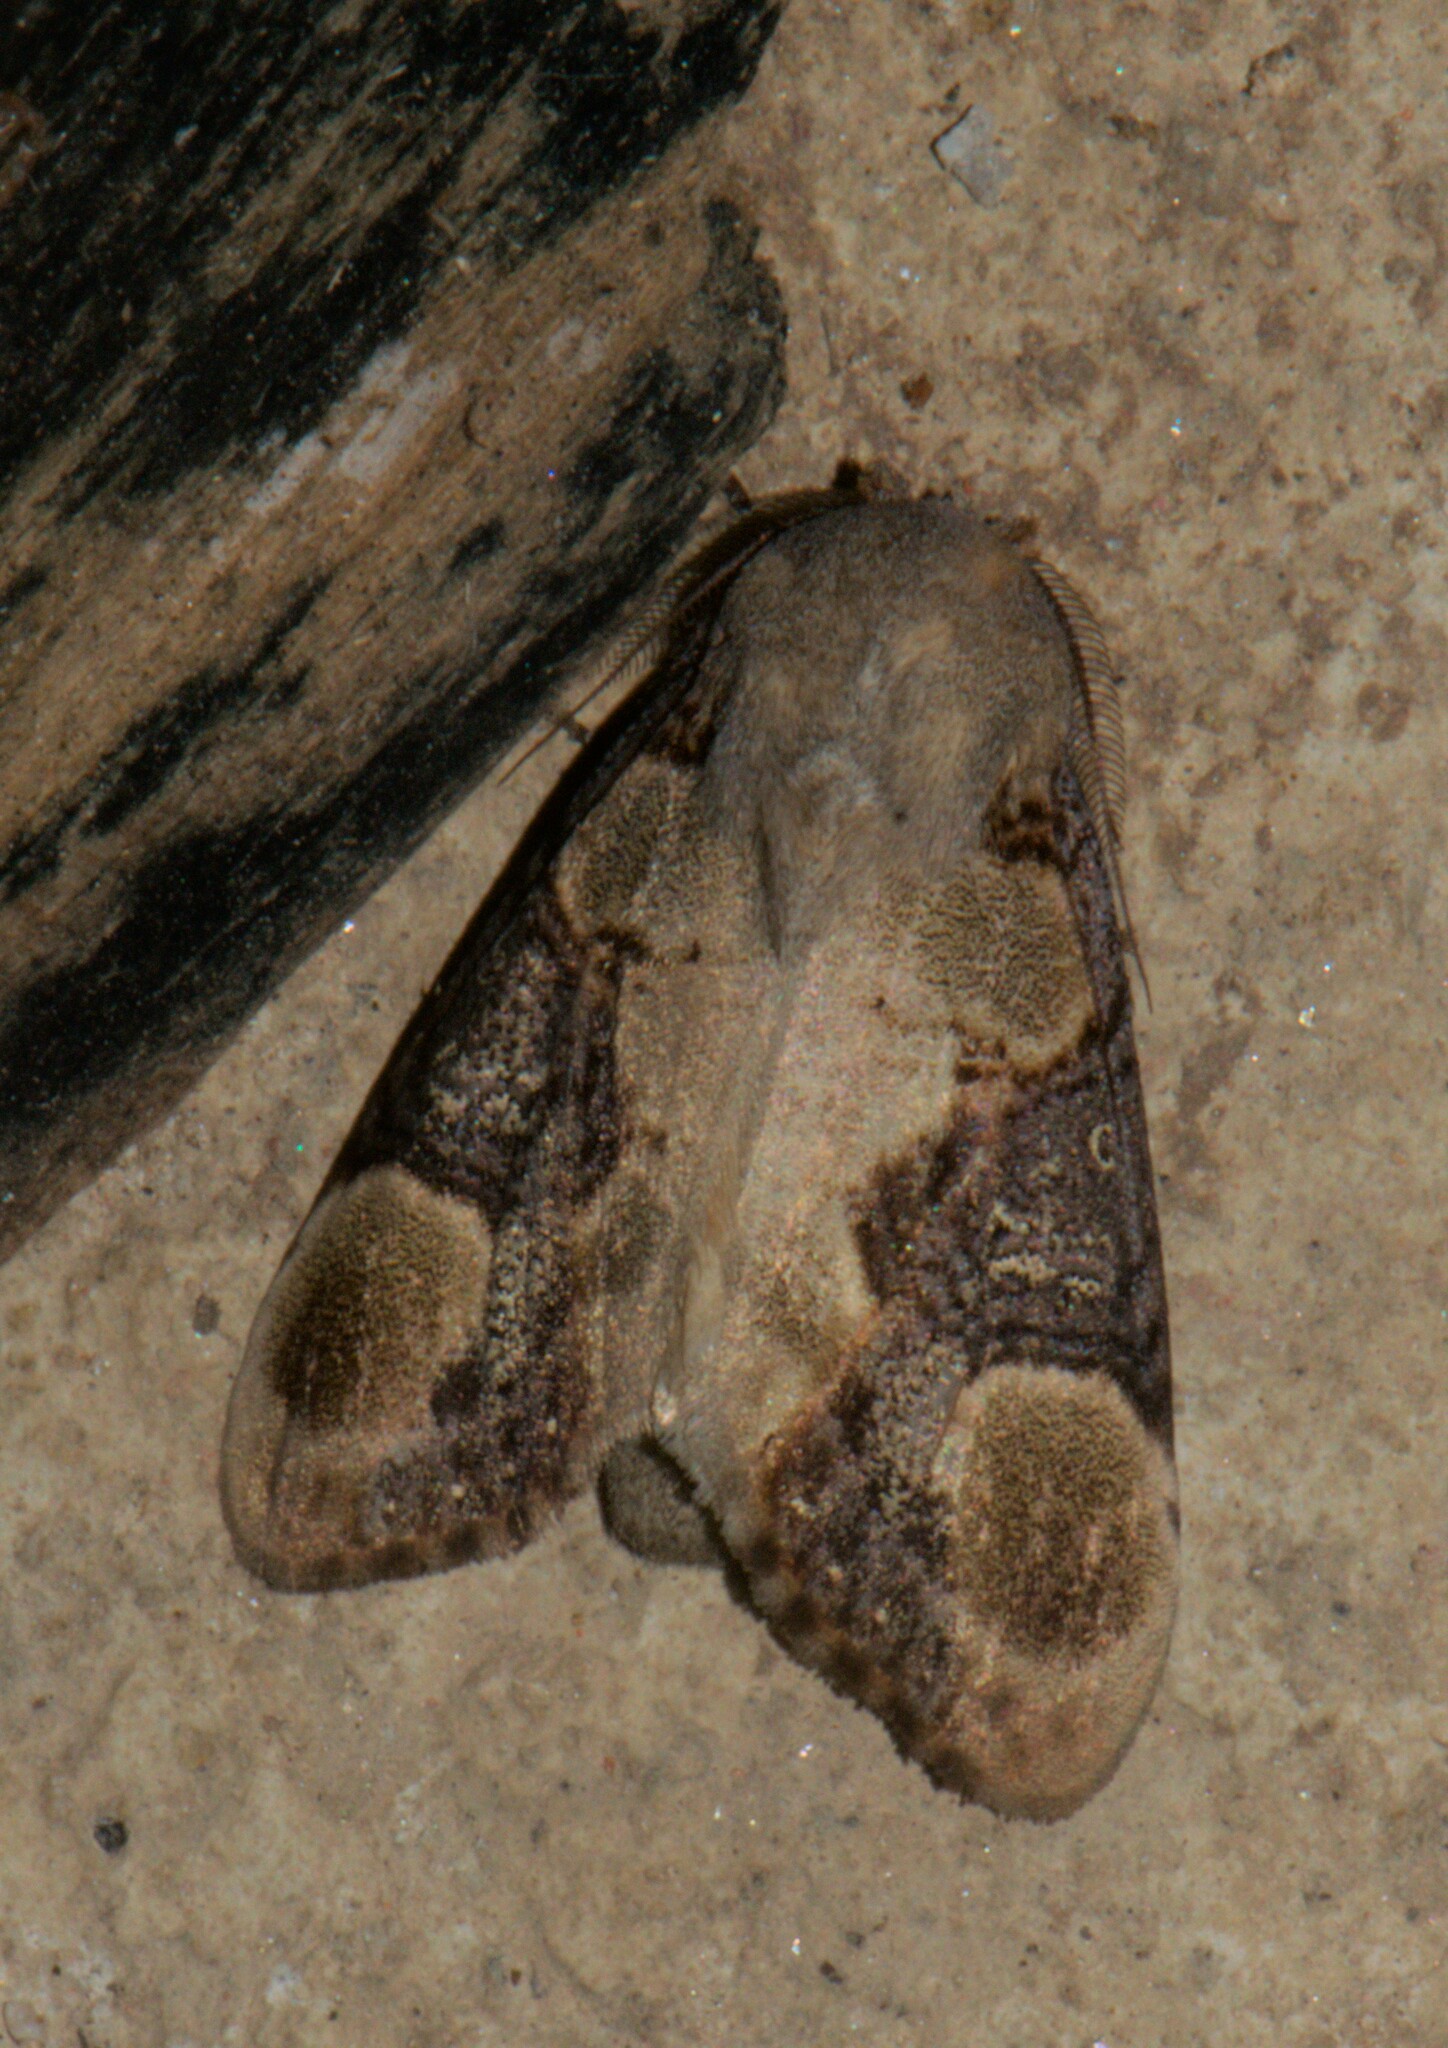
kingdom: Animalia
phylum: Arthropoda
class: Insecta
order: Lepidoptera
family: Notodontidae
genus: Formofentonia
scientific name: Formofentonia orbifer
